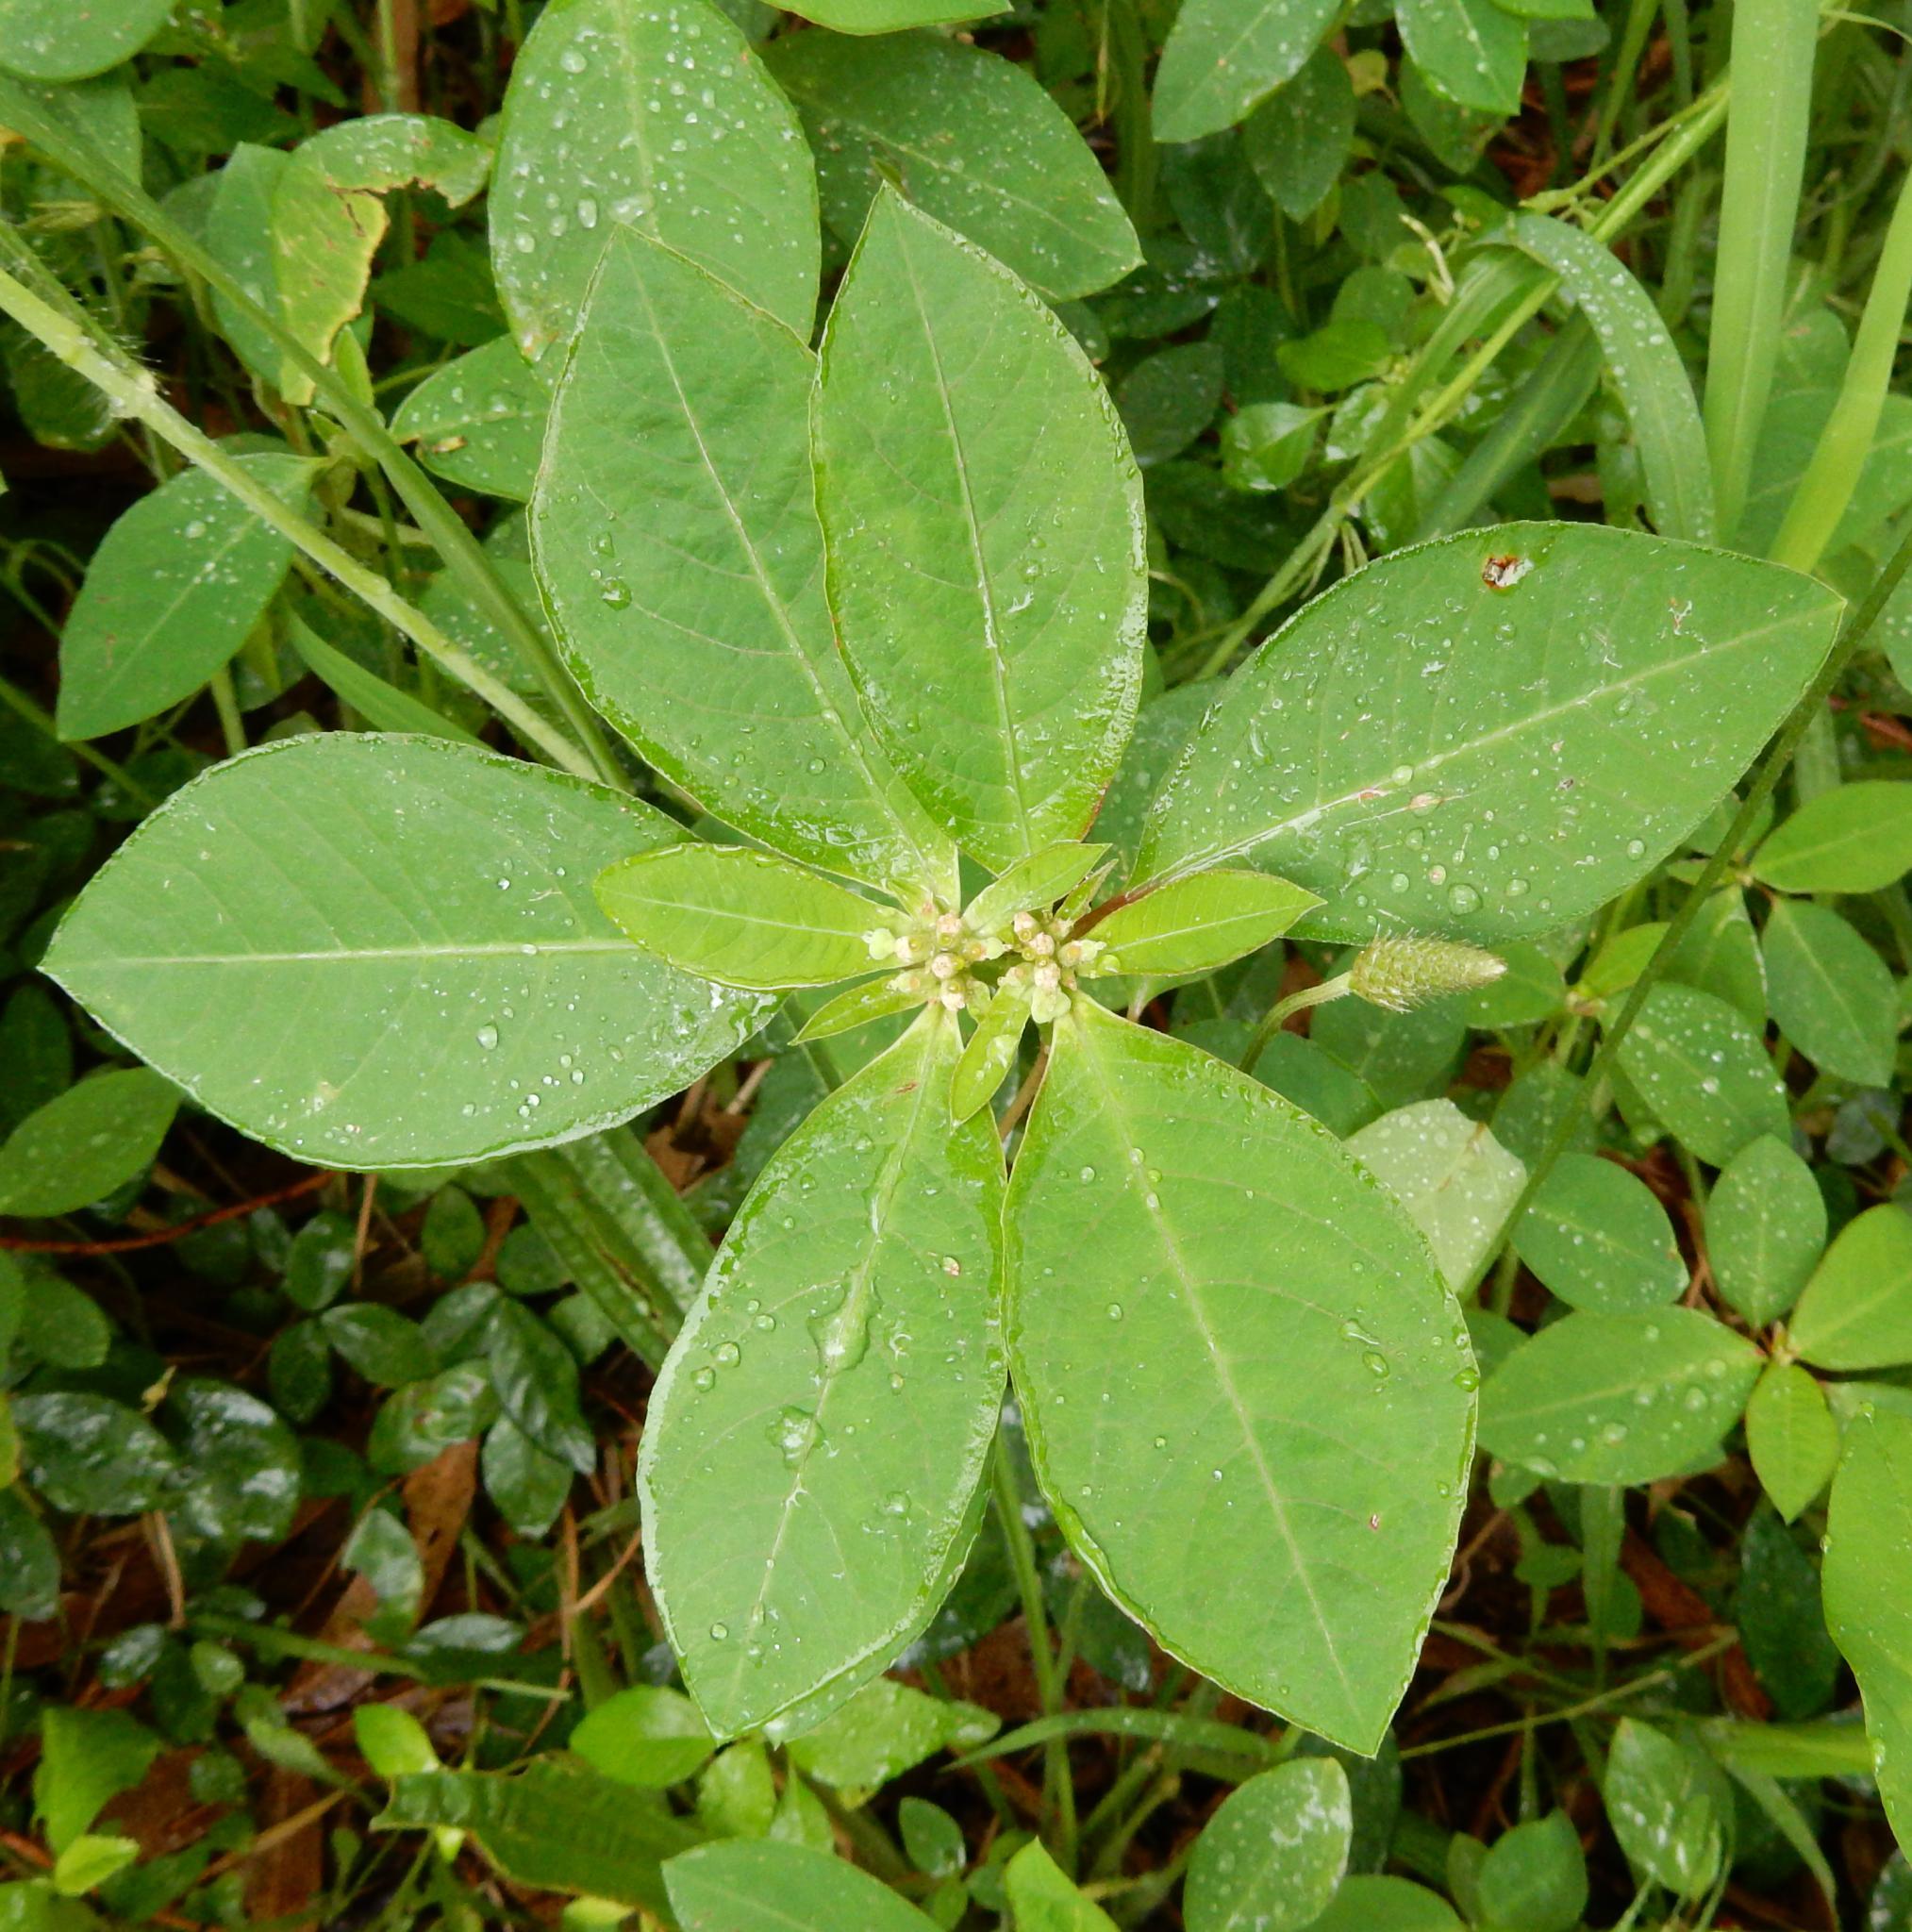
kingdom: Plantae
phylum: Tracheophyta
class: Magnoliopsida
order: Malpighiales
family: Euphorbiaceae
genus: Euphorbia
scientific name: Euphorbia heterophylla
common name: Mexican fireplant
